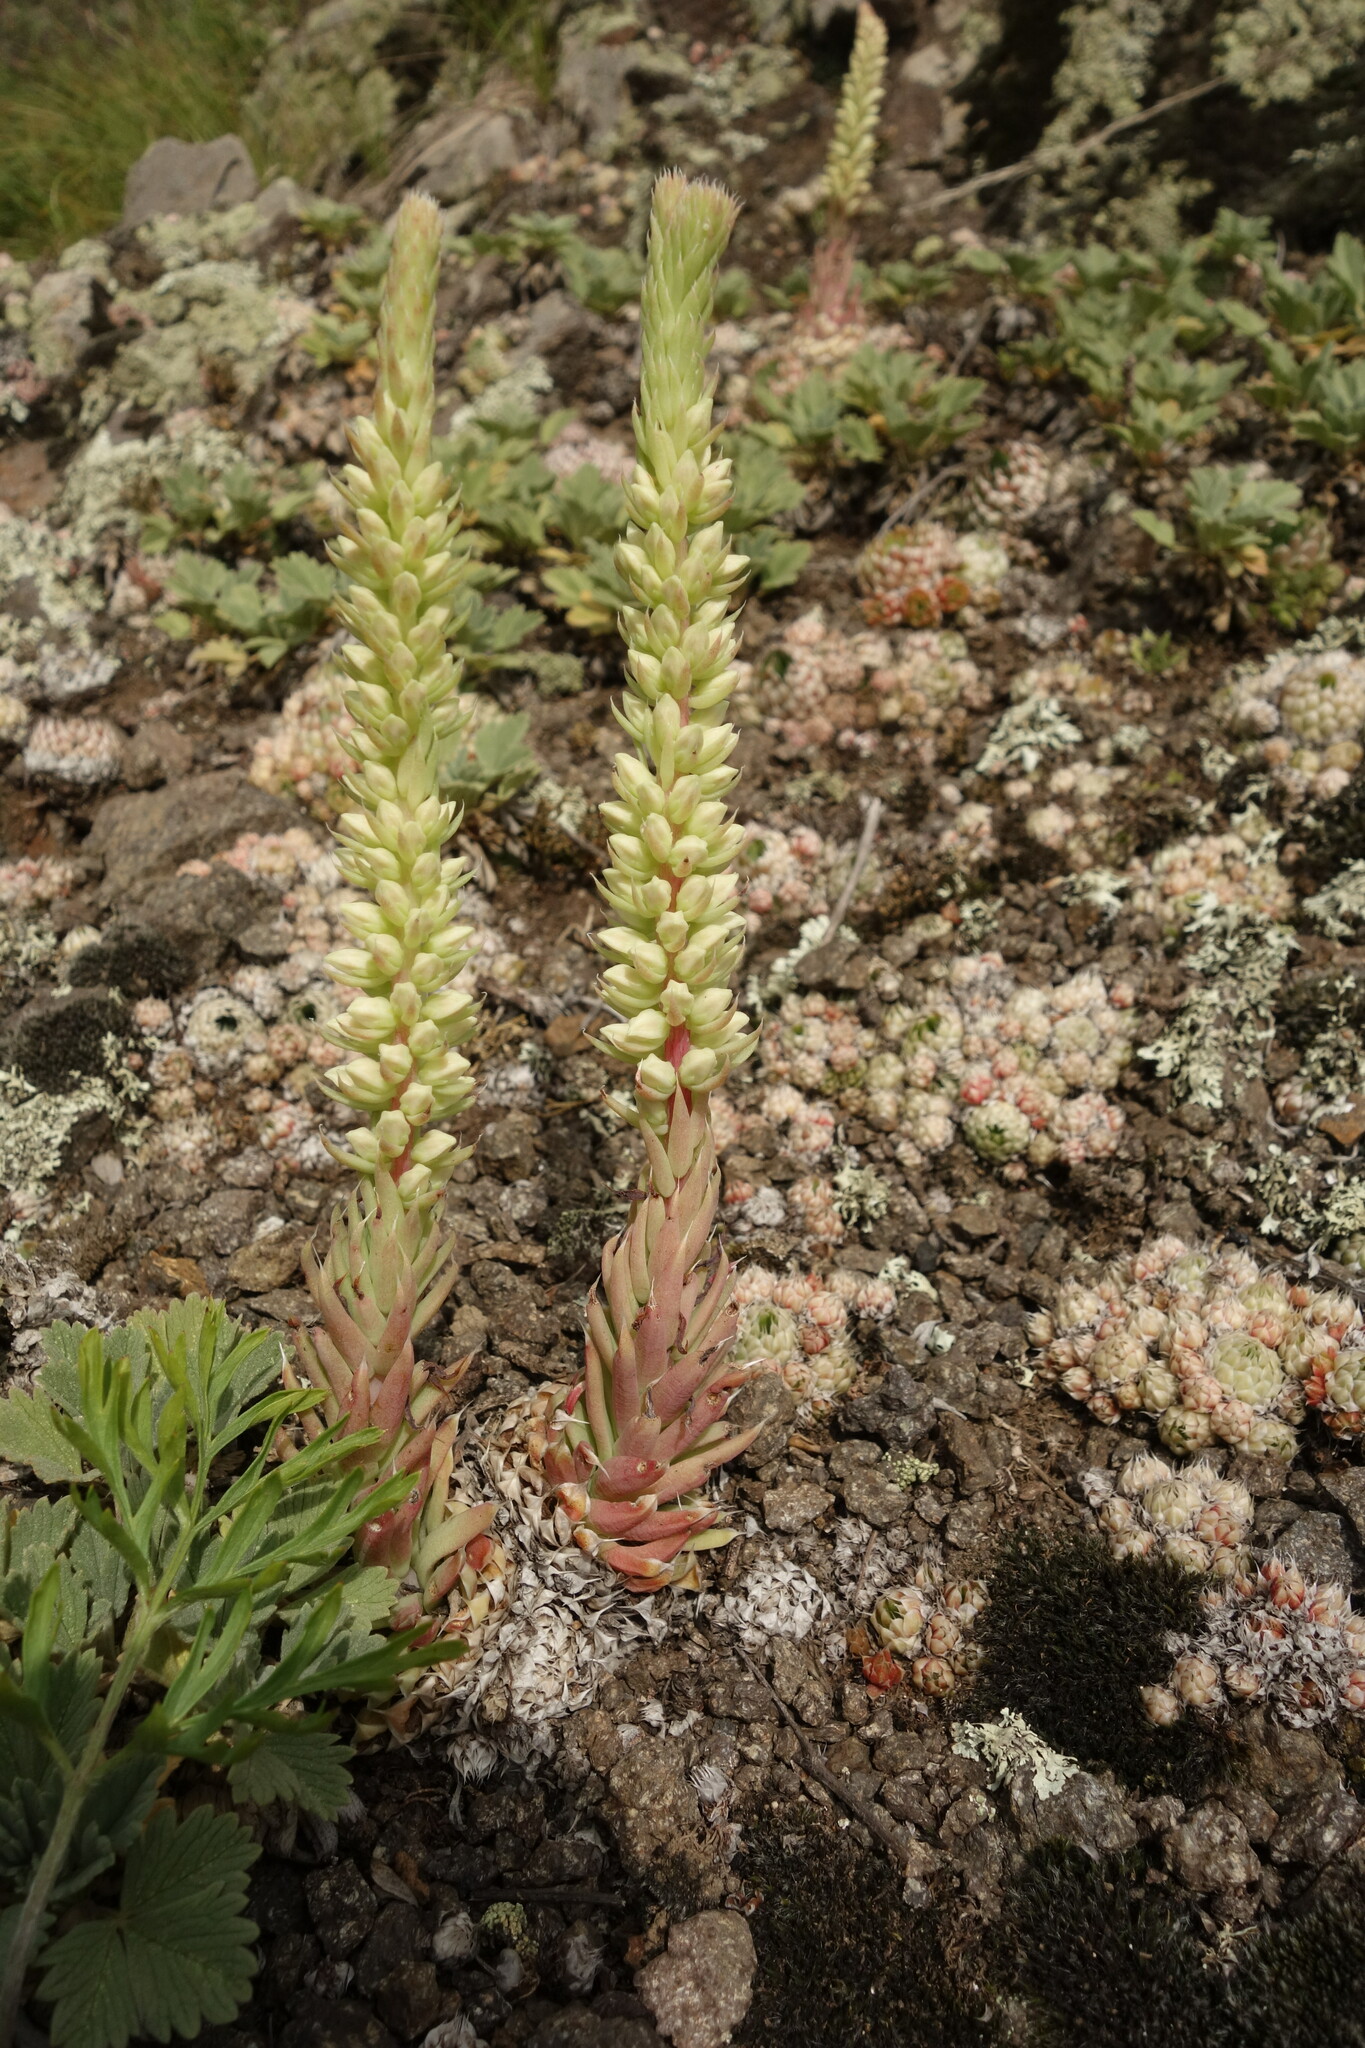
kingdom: Plantae
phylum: Tracheophyta
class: Magnoliopsida
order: Saxifragales
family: Crassulaceae
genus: Orostachys
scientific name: Orostachys spinosa
